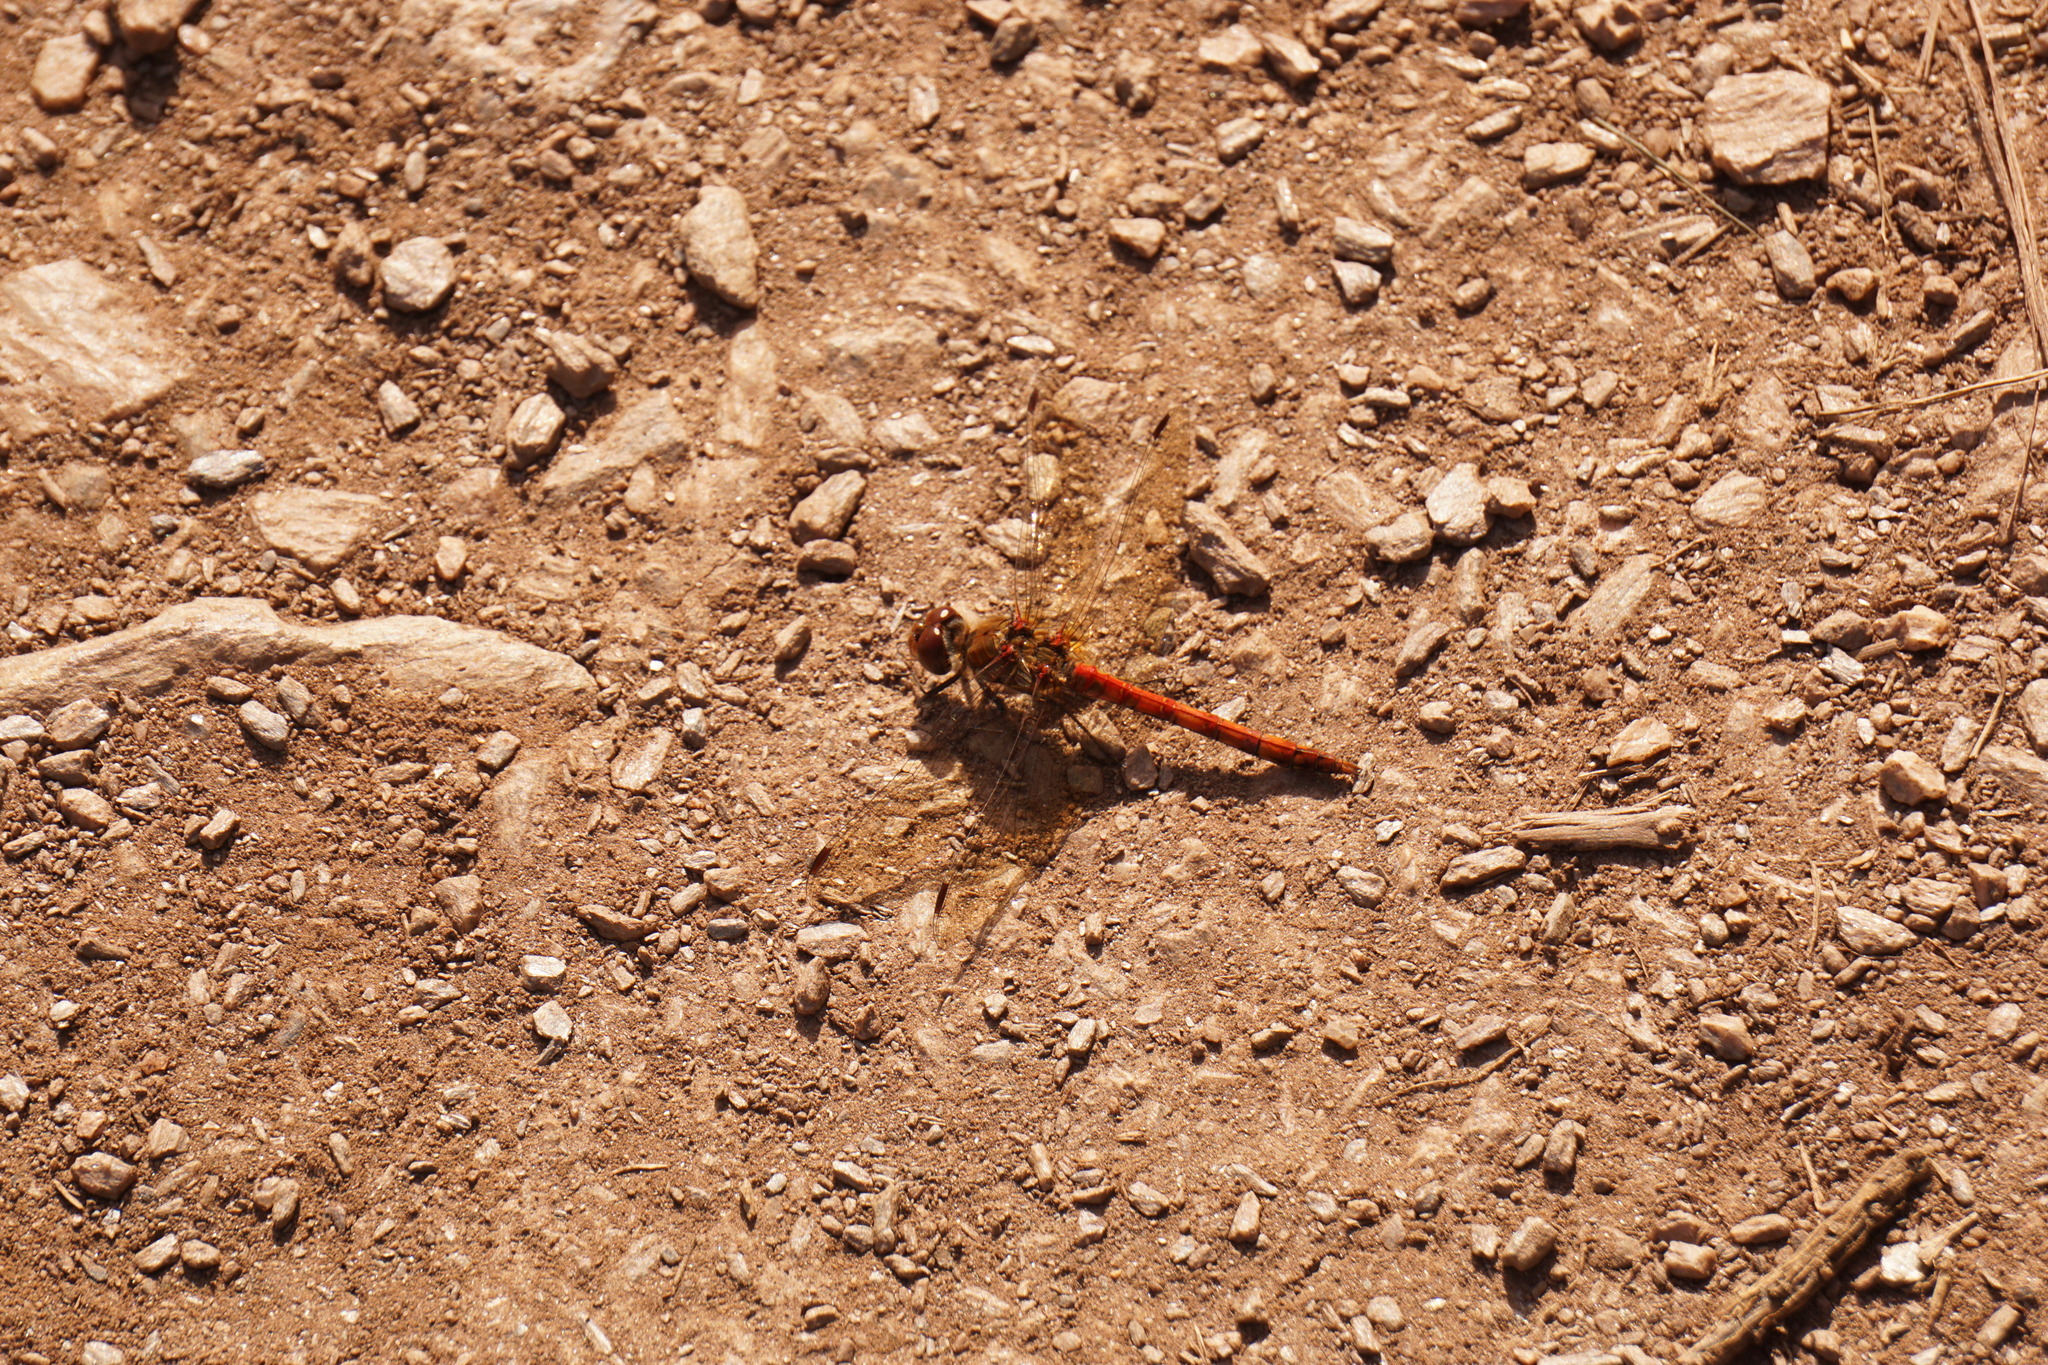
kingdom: Animalia
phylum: Arthropoda
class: Insecta
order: Odonata
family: Libellulidae
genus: Sympetrum
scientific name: Sympetrum striolatum
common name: Common darter
